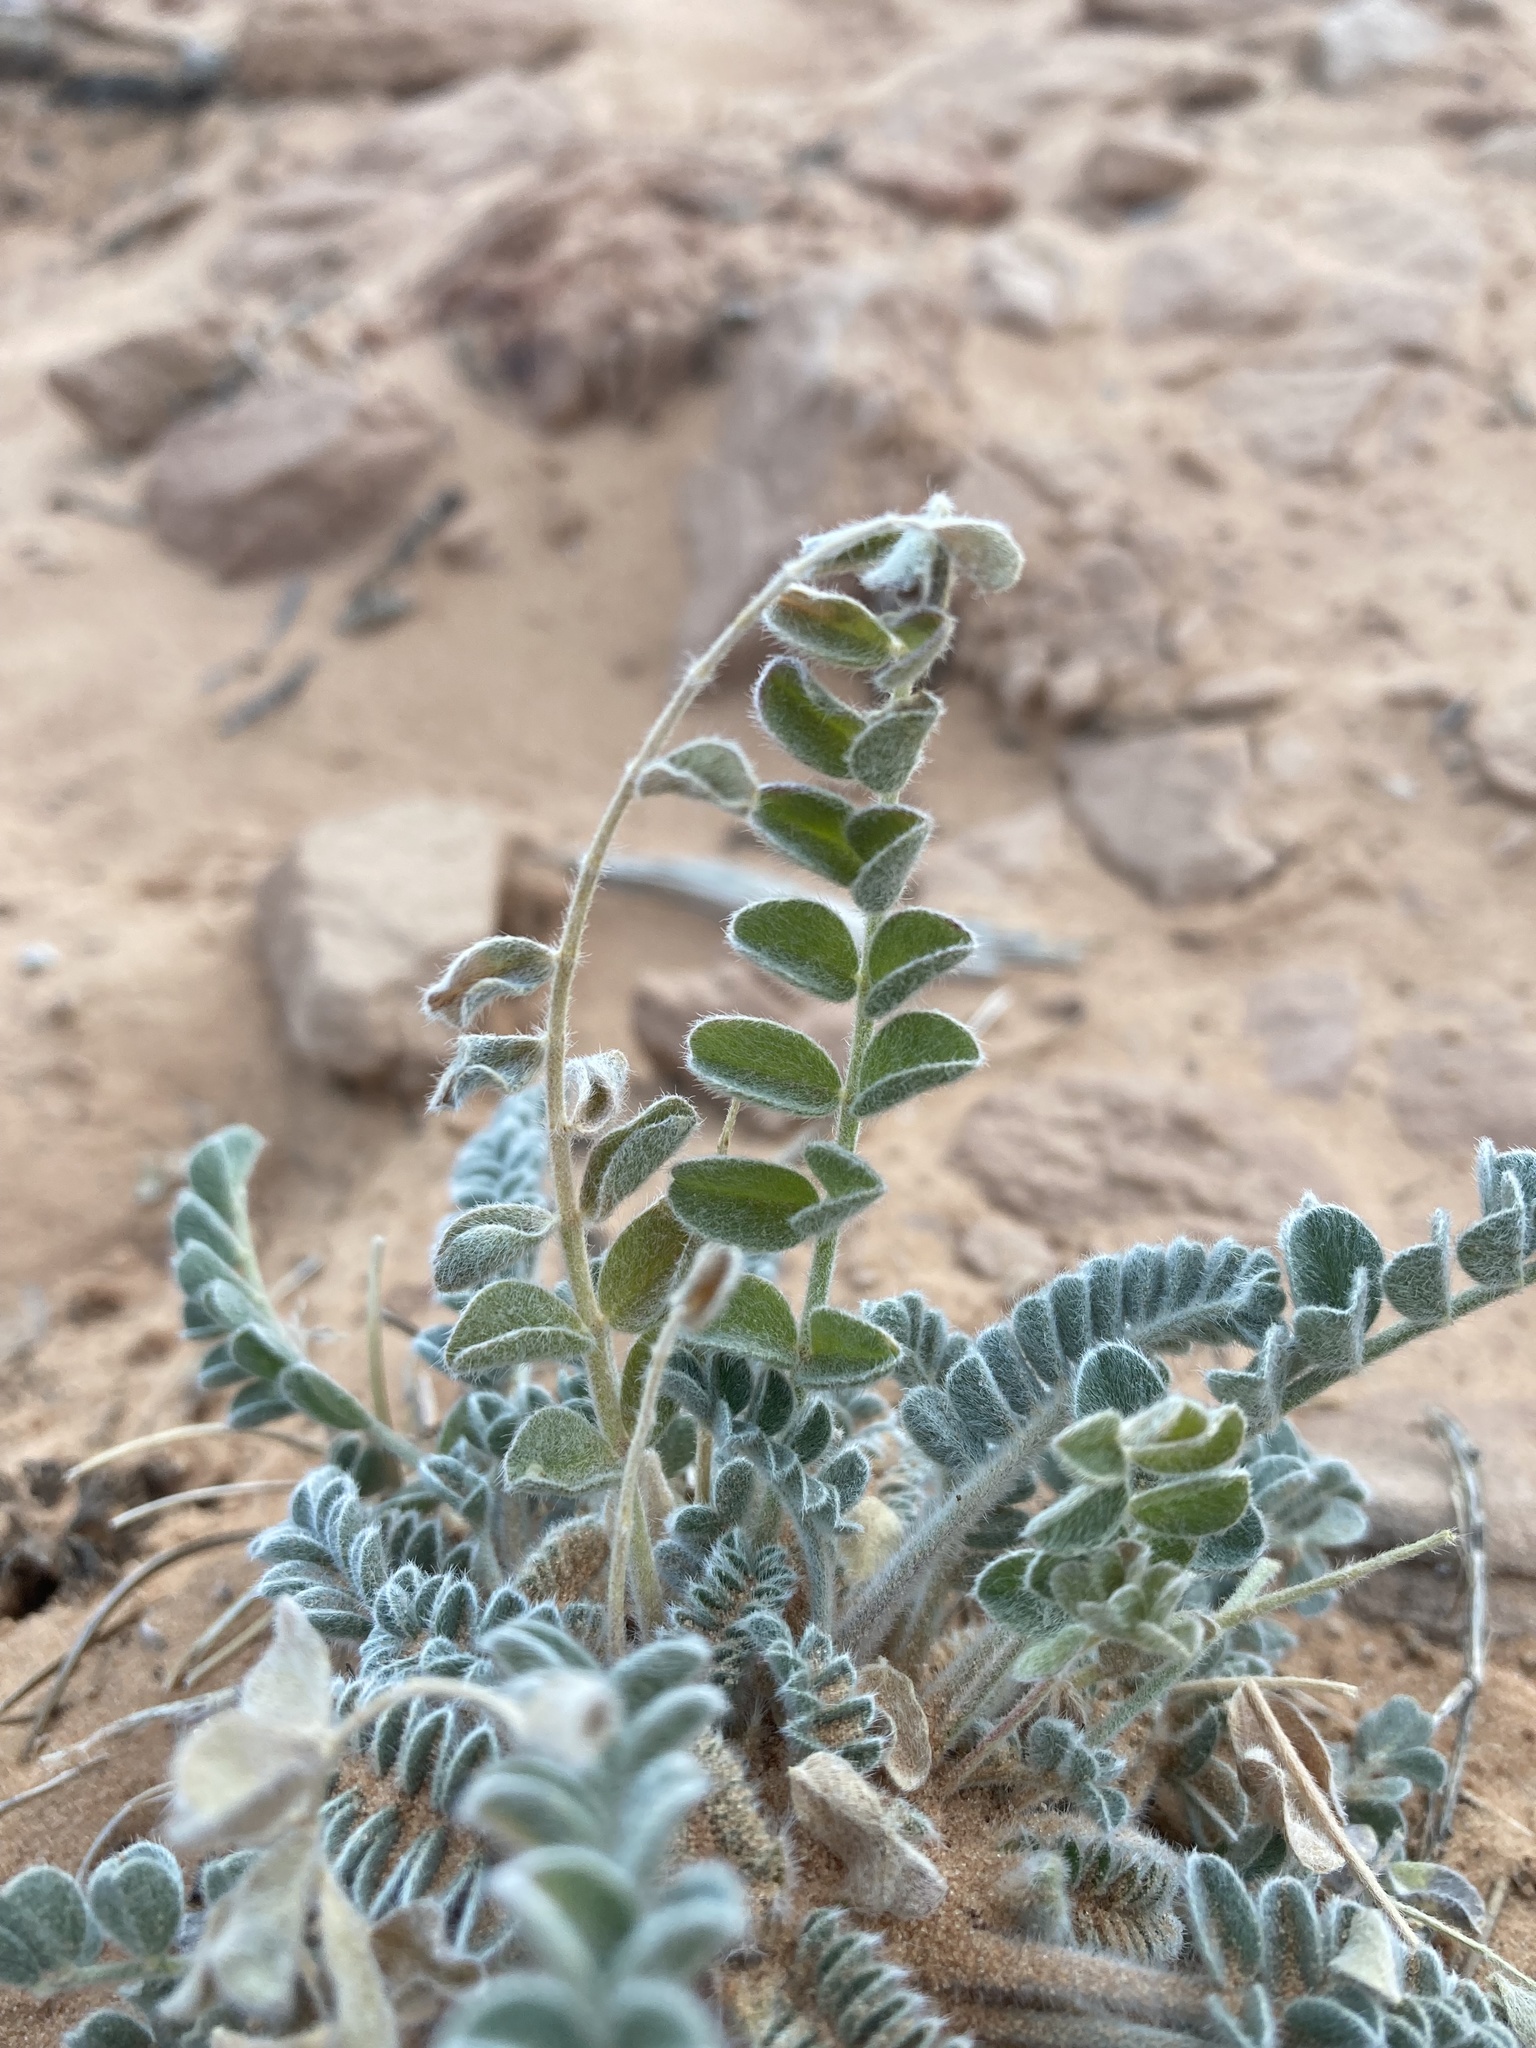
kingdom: Plantae
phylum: Tracheophyta
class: Magnoliopsida
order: Fabales
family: Fabaceae
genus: Astragalus
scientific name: Astragalus mollissimus
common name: Woolly locoweed
